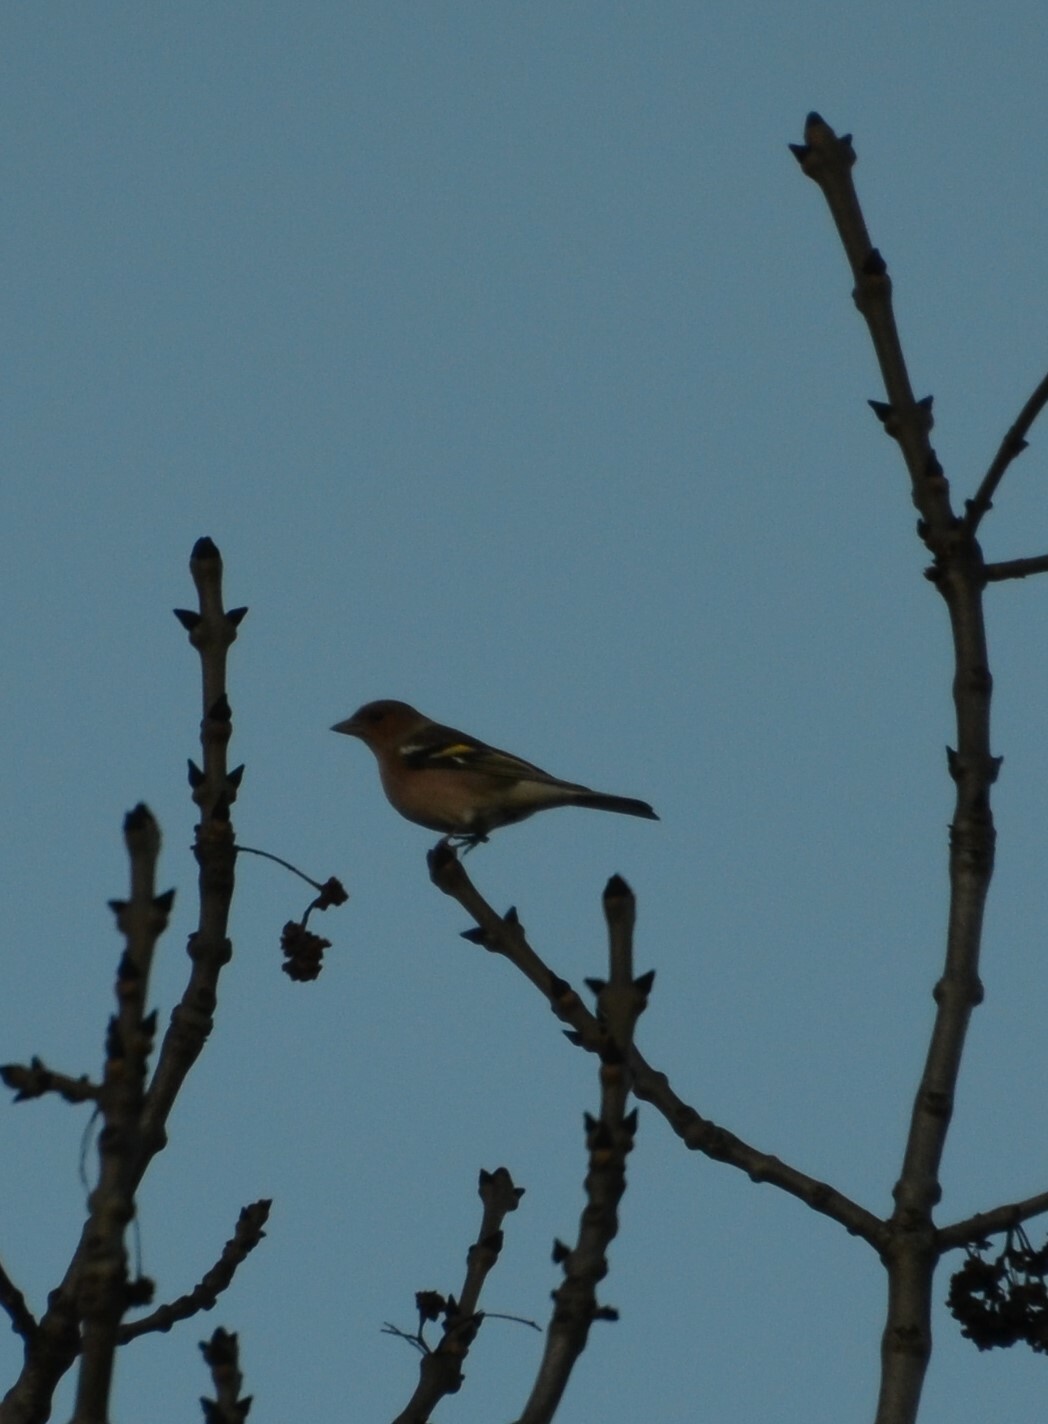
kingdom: Animalia
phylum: Chordata
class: Aves
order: Passeriformes
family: Fringillidae
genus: Fringilla
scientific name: Fringilla coelebs
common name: Common chaffinch
